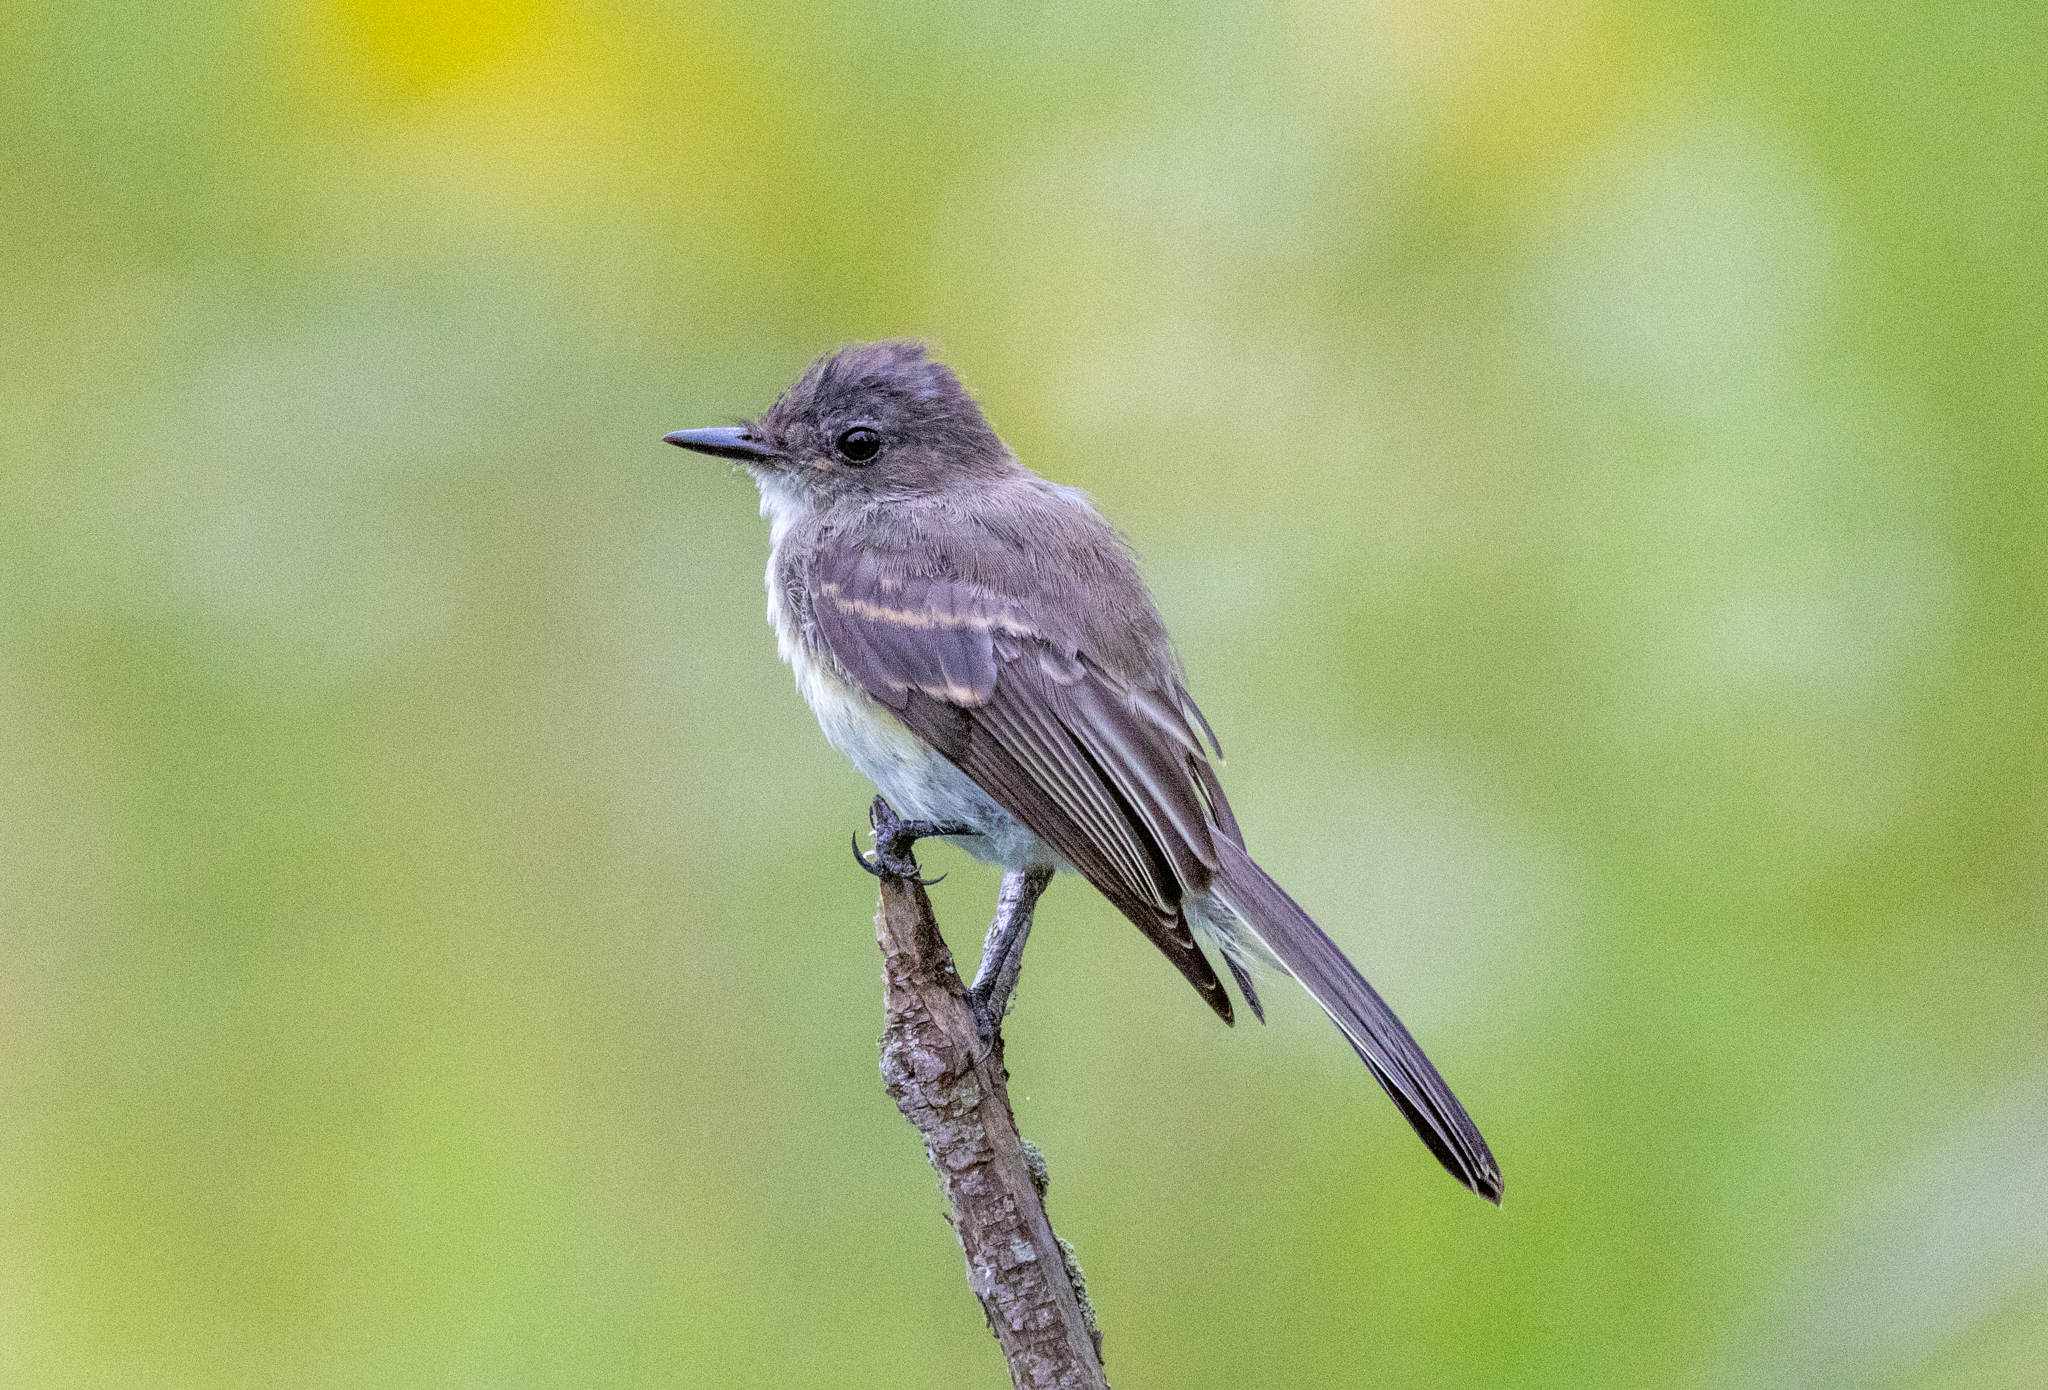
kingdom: Animalia
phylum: Chordata
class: Aves
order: Passeriformes
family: Tyrannidae
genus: Sayornis
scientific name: Sayornis phoebe
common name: Eastern phoebe
